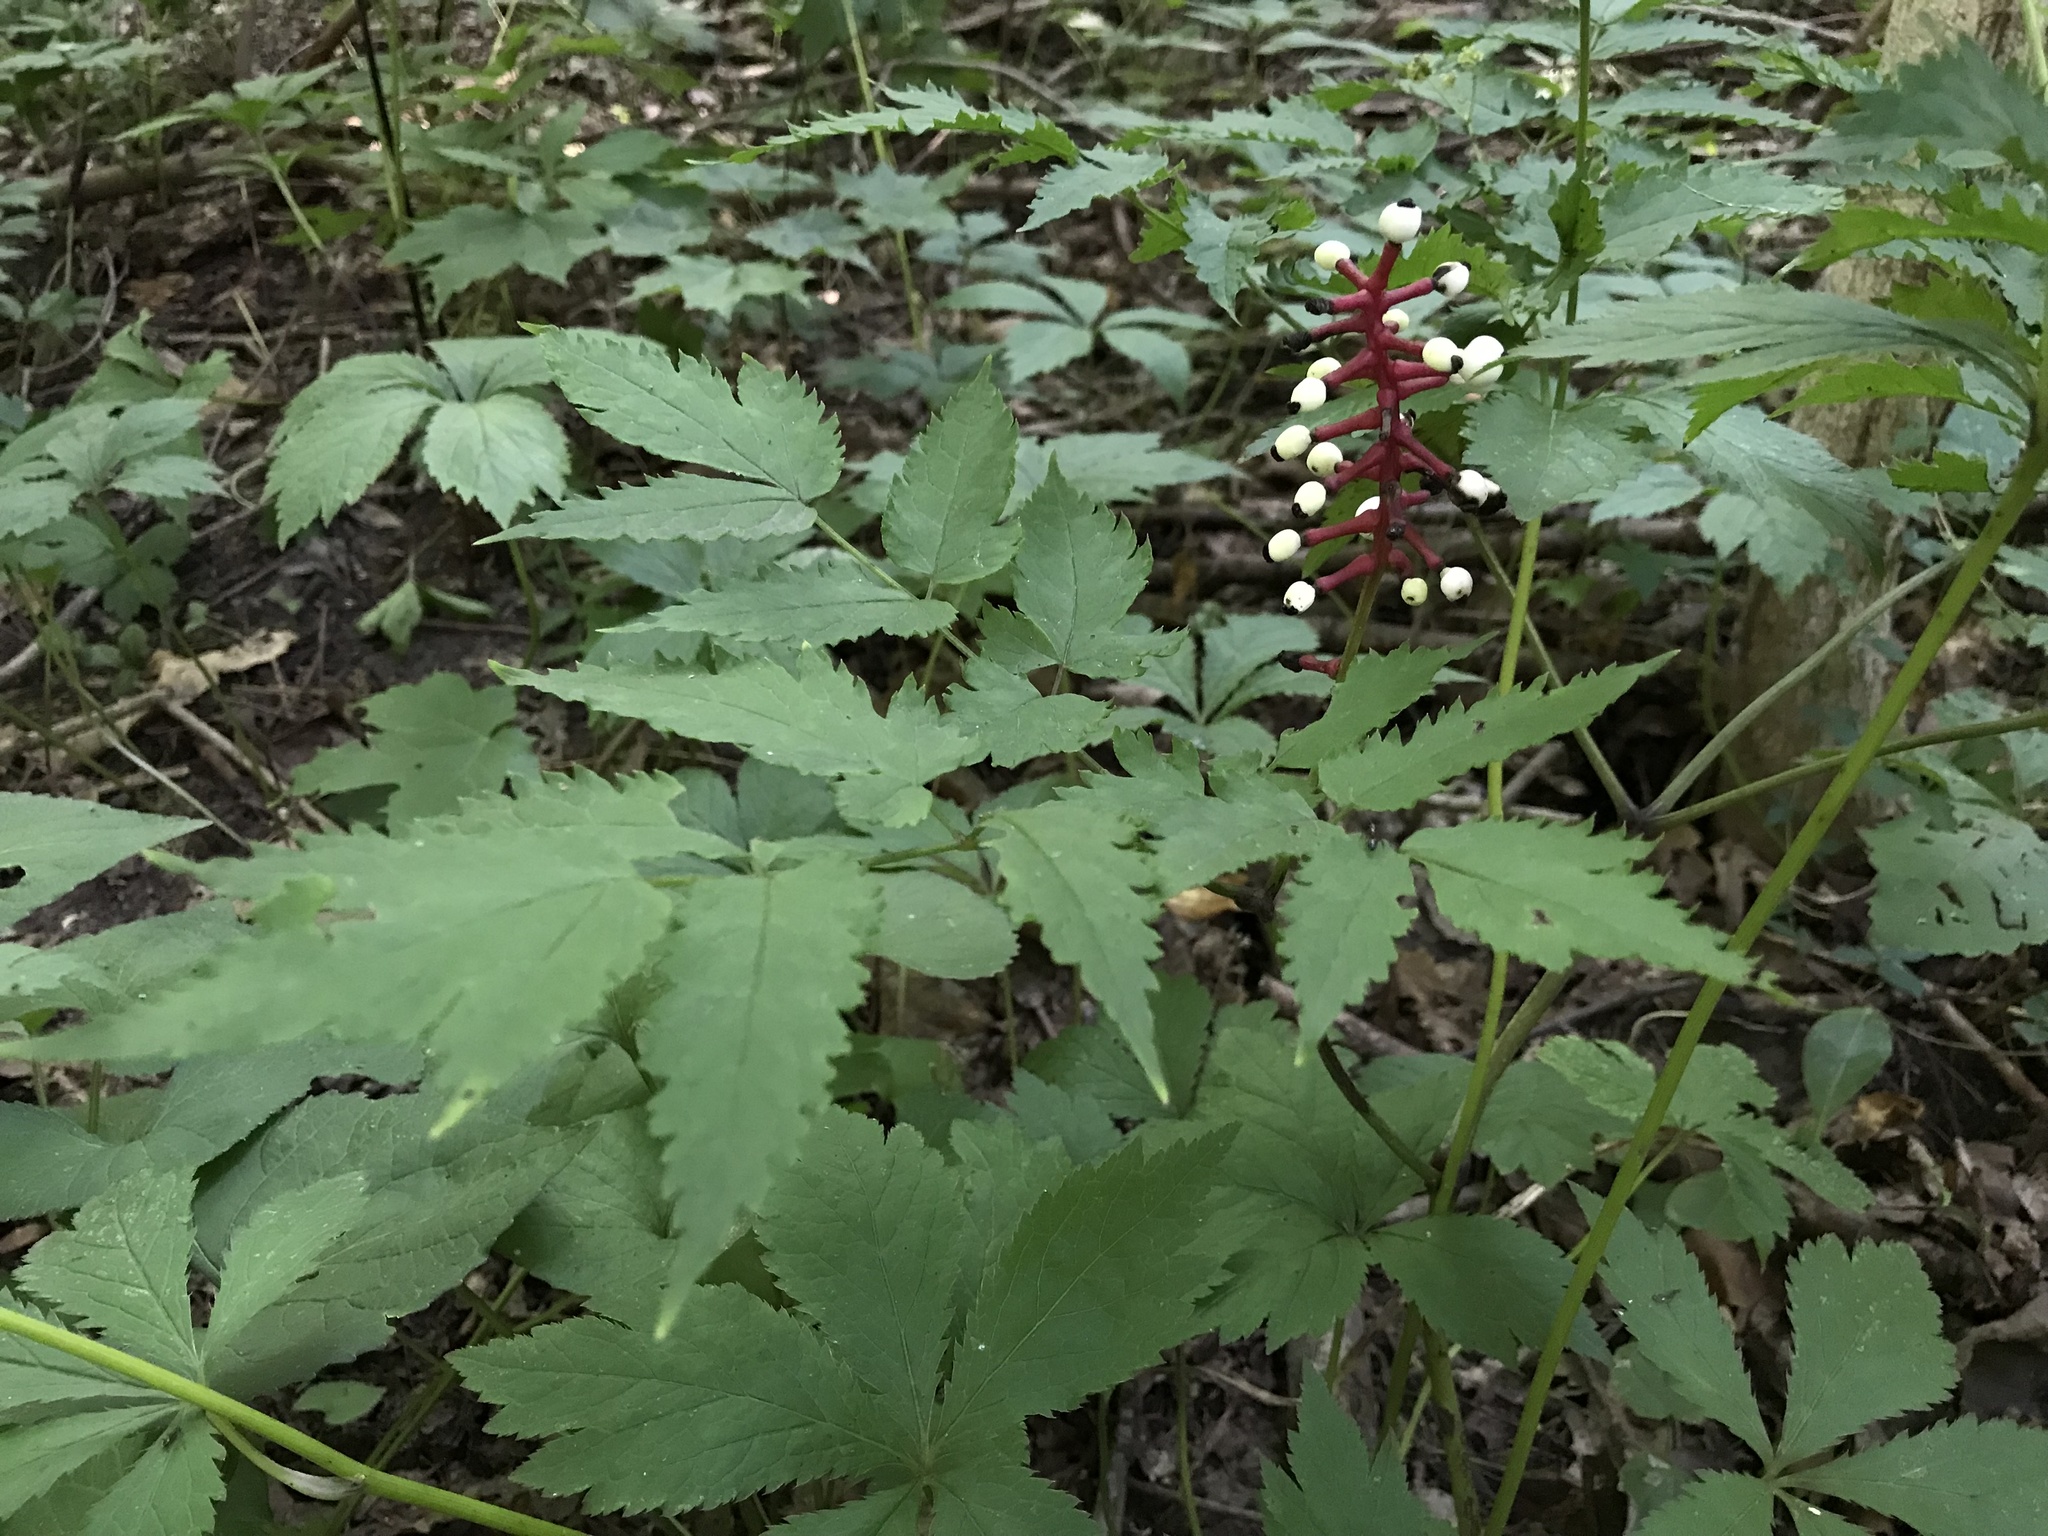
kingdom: Plantae
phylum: Tracheophyta
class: Magnoliopsida
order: Ranunculales
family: Ranunculaceae
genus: Actaea
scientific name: Actaea pachypoda
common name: Doll's-eyes
